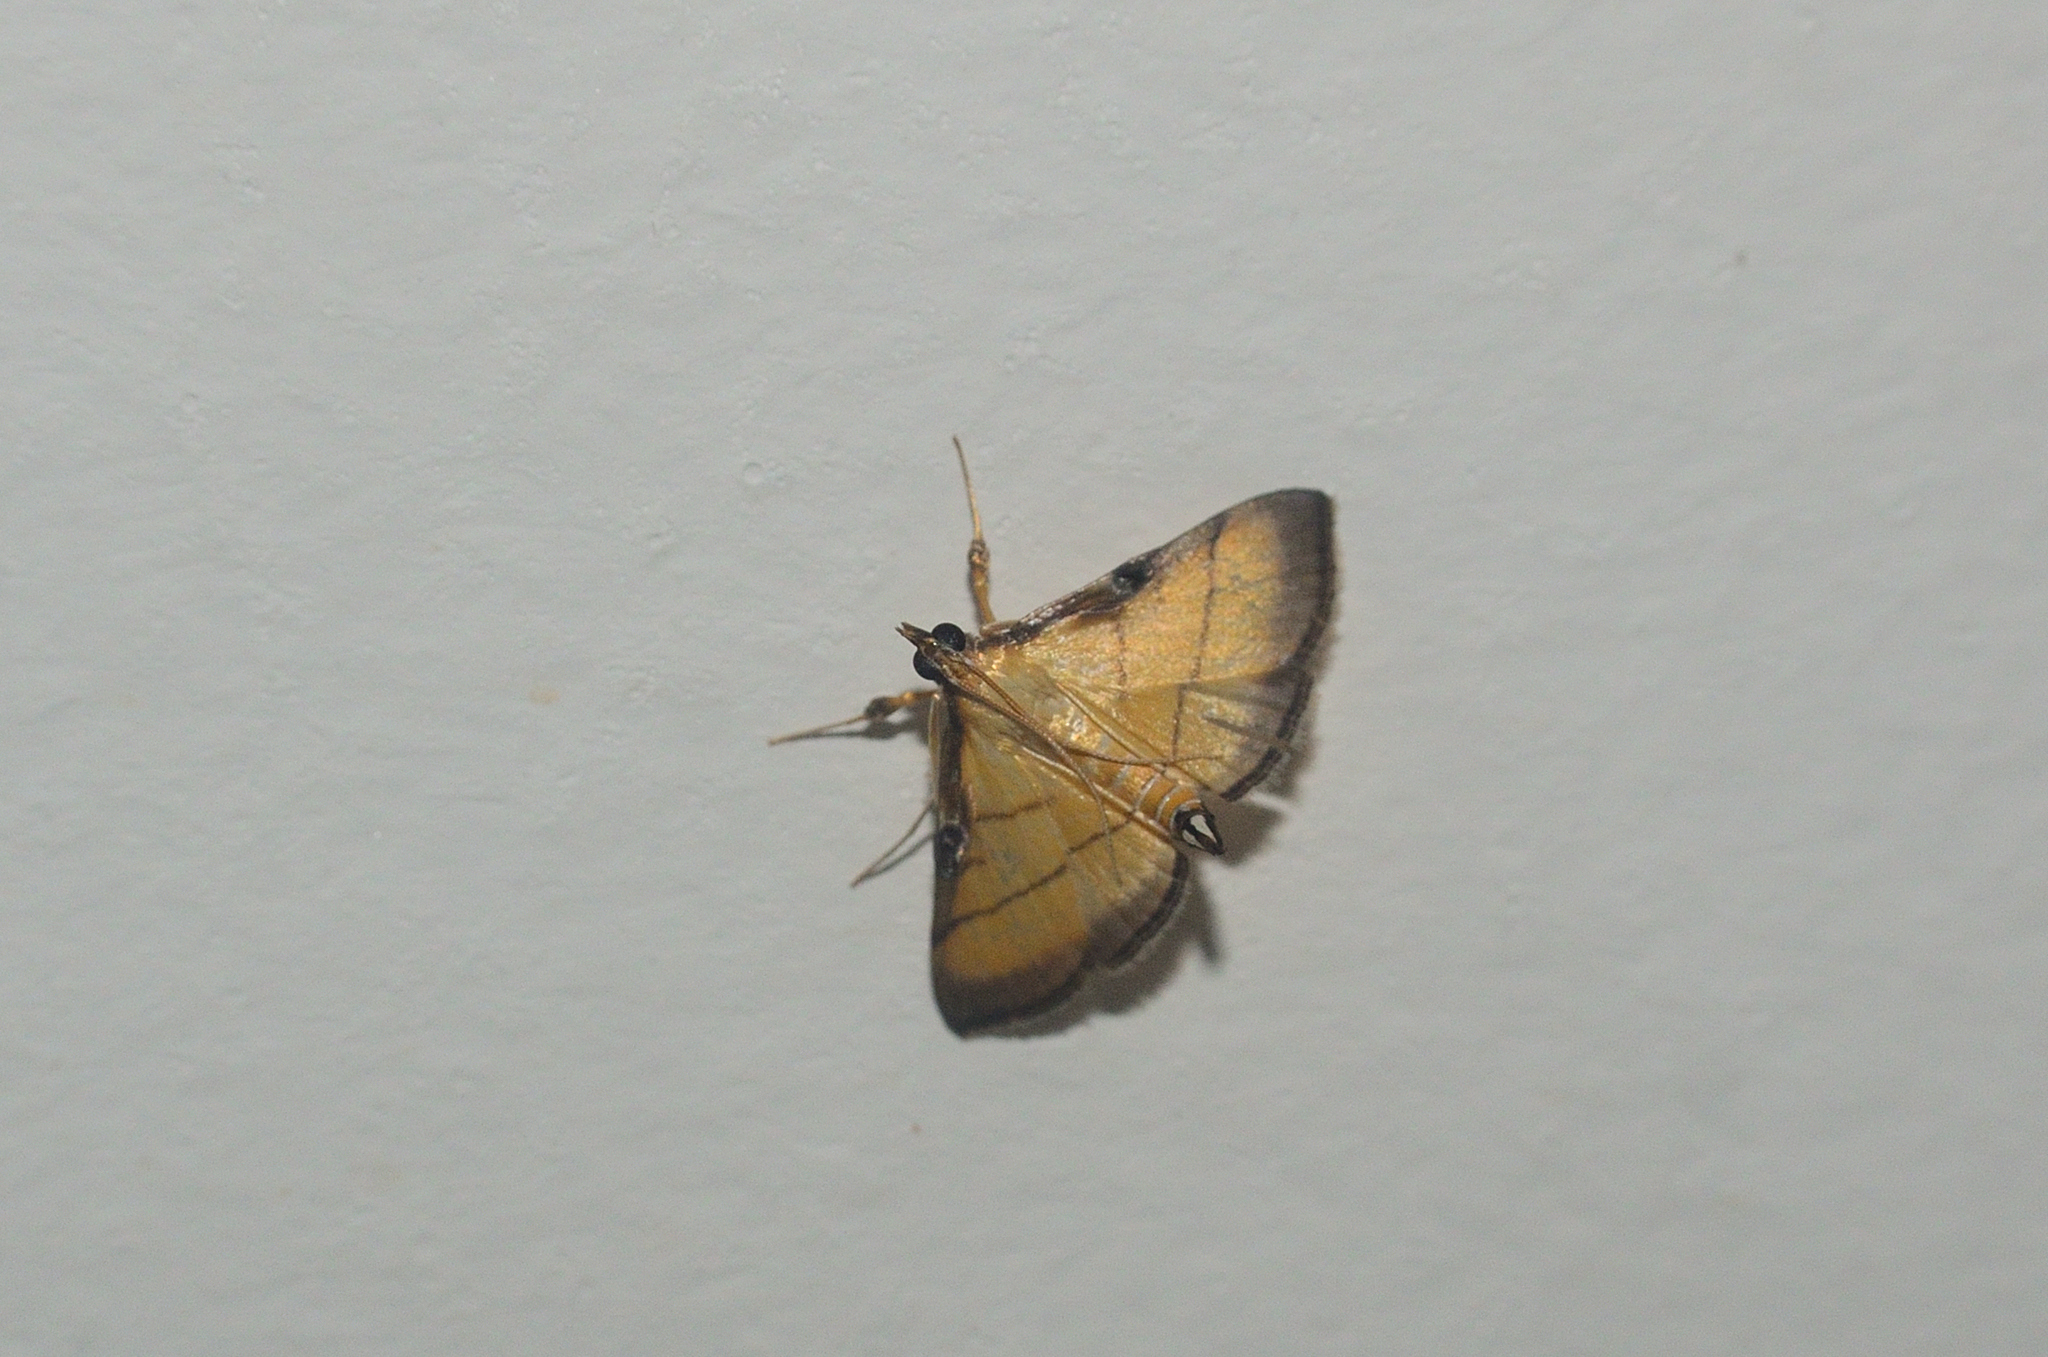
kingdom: Animalia
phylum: Arthropoda
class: Insecta
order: Lepidoptera
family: Crambidae
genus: Cnaphalocrocis
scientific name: Cnaphalocrocis medinalis
